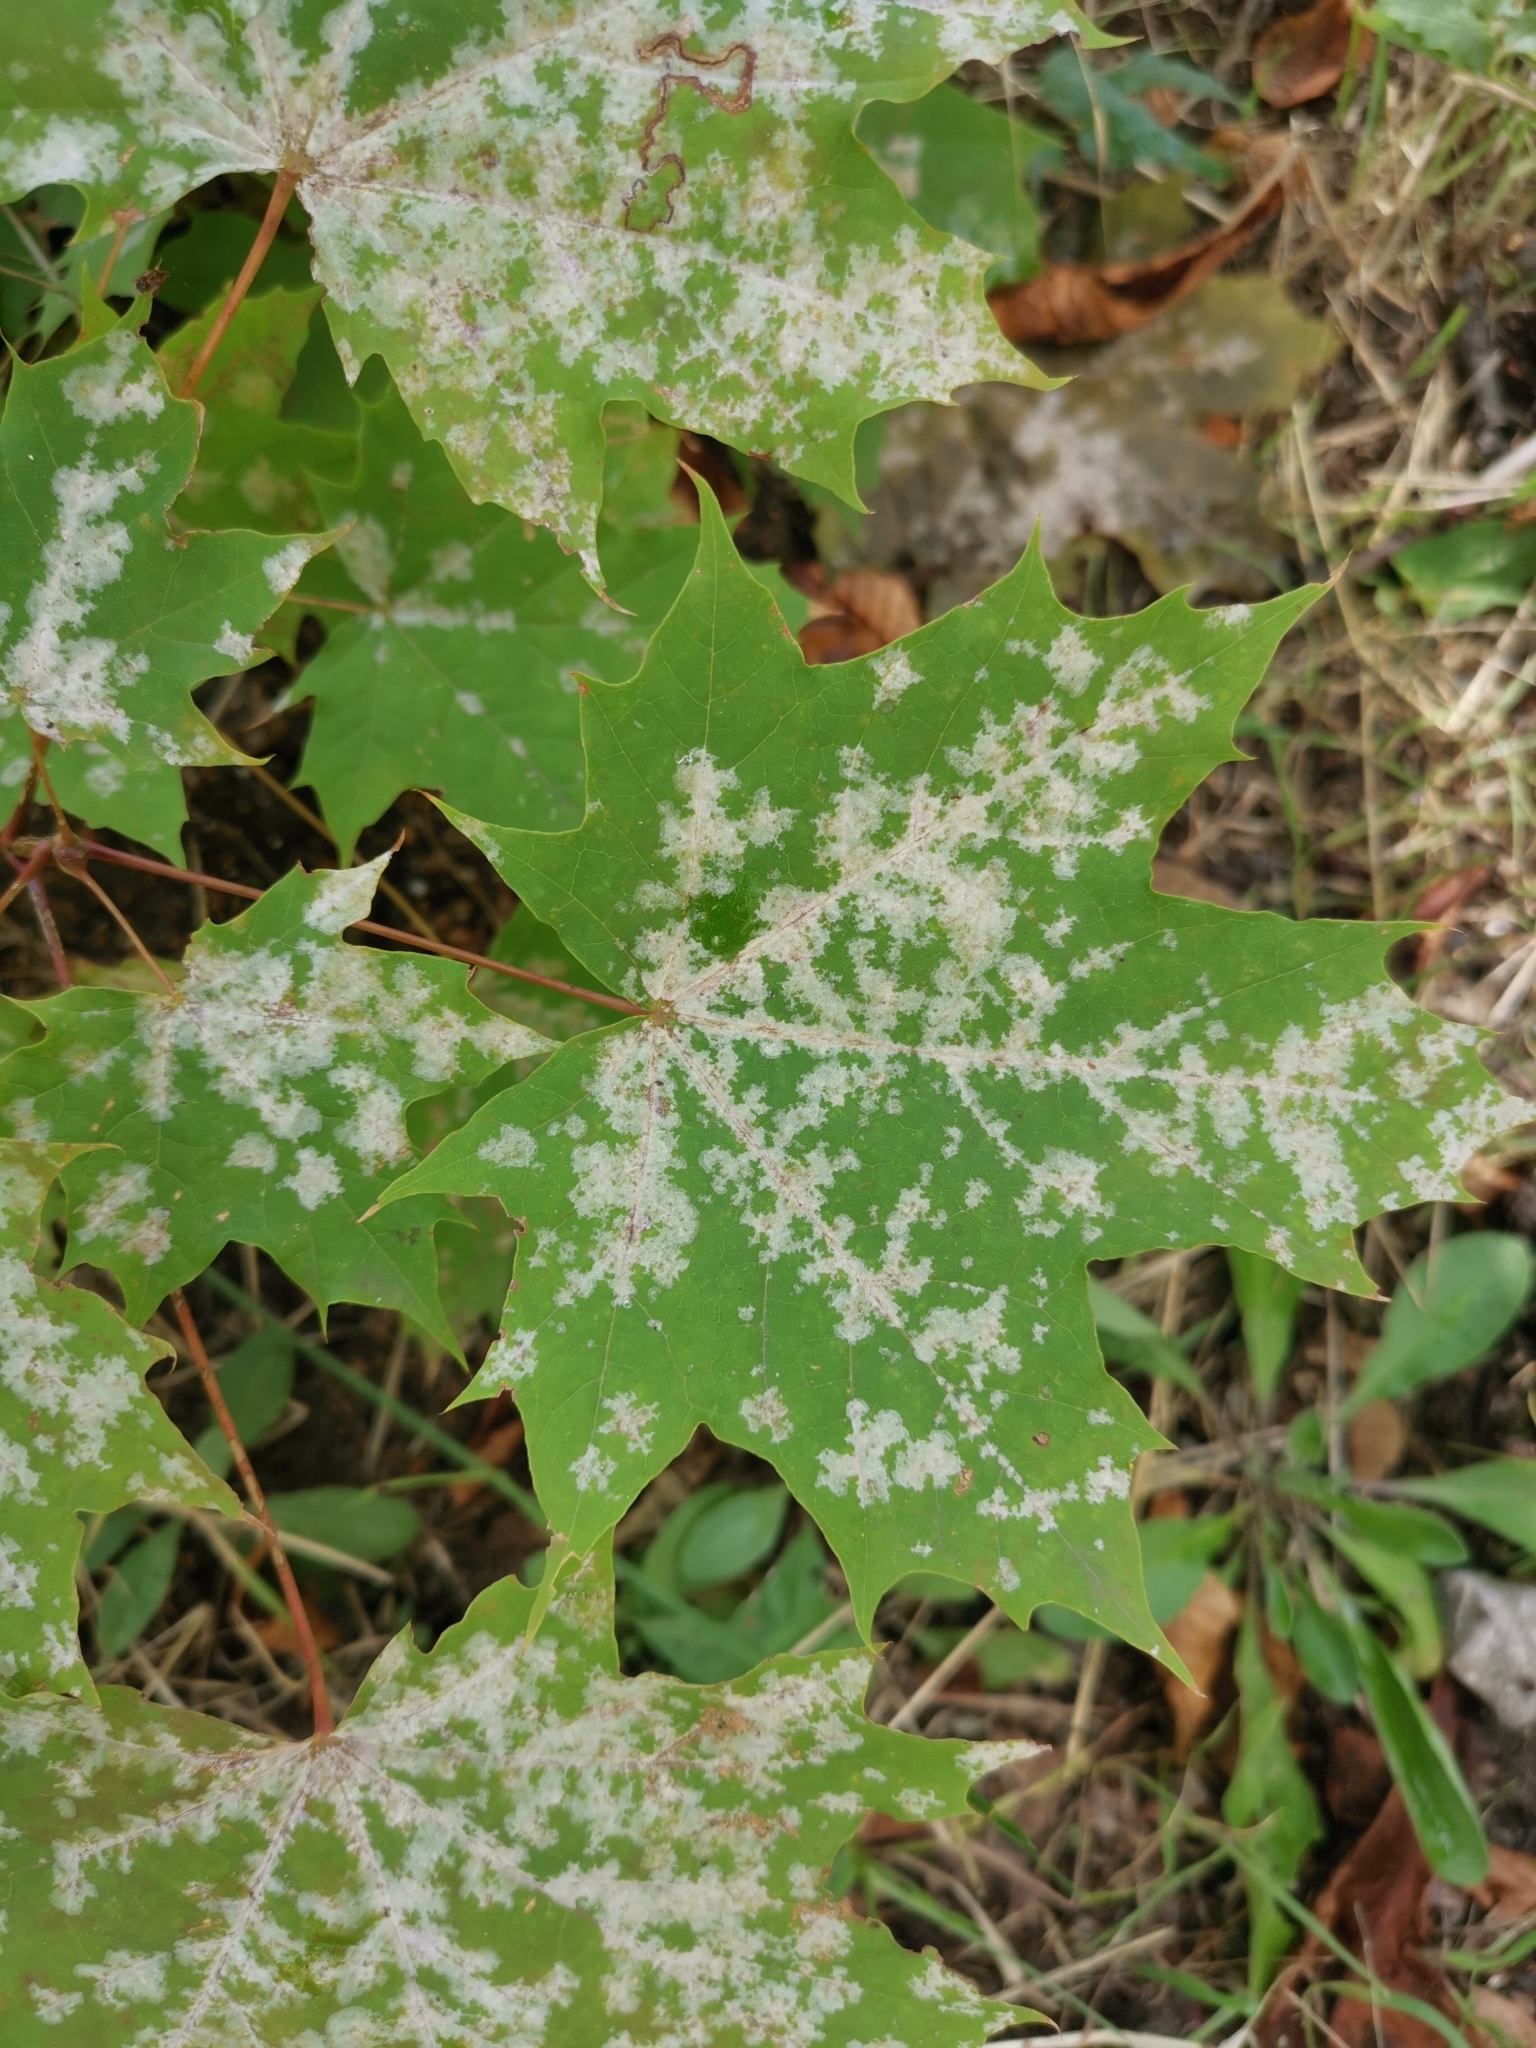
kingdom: Fungi
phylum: Ascomycota
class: Leotiomycetes
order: Helotiales
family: Erysiphaceae
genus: Sawadaea
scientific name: Sawadaea tulasnei
